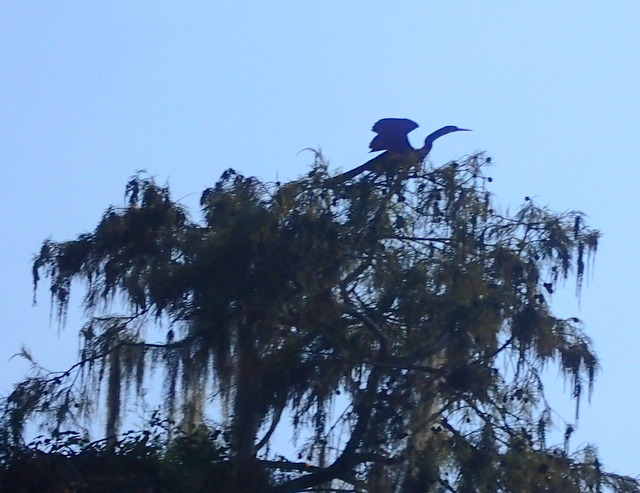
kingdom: Animalia
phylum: Chordata
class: Aves
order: Suliformes
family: Anhingidae
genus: Anhinga
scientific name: Anhinga anhinga
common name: Anhinga
